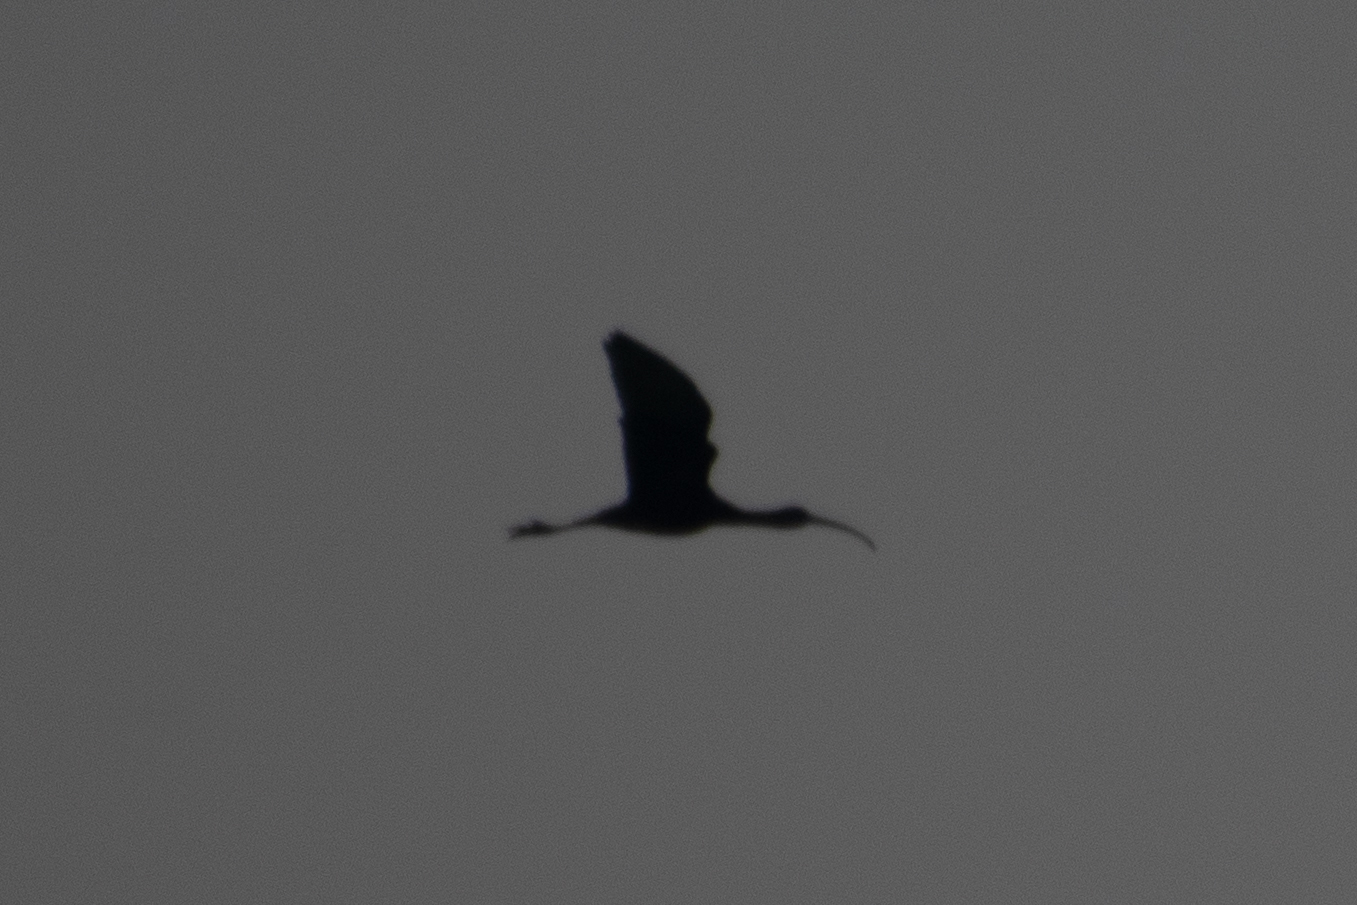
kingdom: Animalia
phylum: Chordata
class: Aves
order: Pelecaniformes
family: Threskiornithidae
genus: Plegadis
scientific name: Plegadis chihi
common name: White-faced ibis
